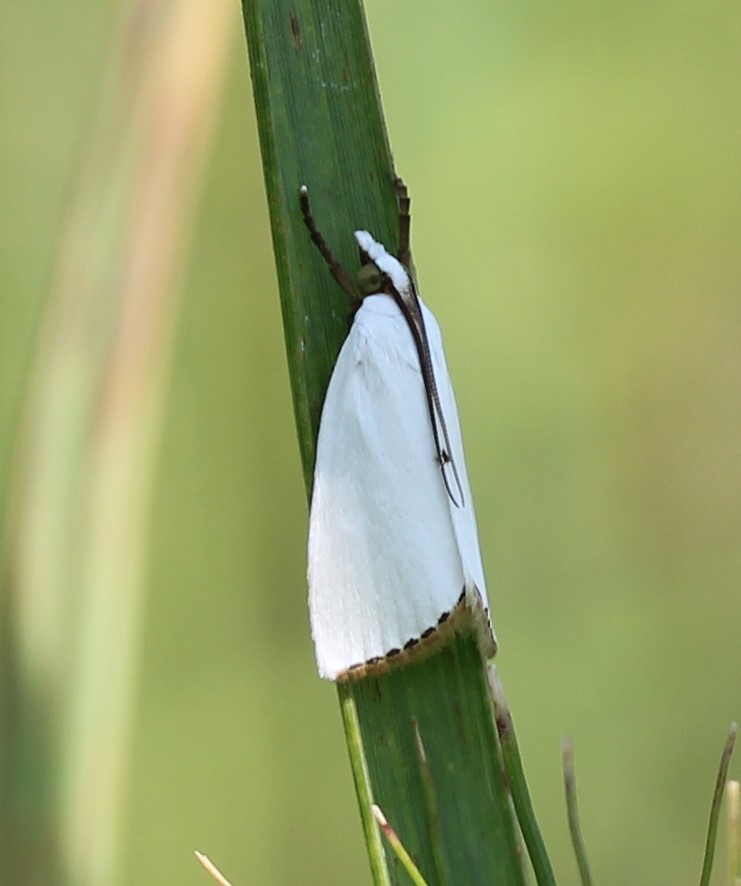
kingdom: Animalia
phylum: Arthropoda
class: Insecta
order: Lepidoptera
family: Crambidae
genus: Argyria
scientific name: Argyria nivalis
